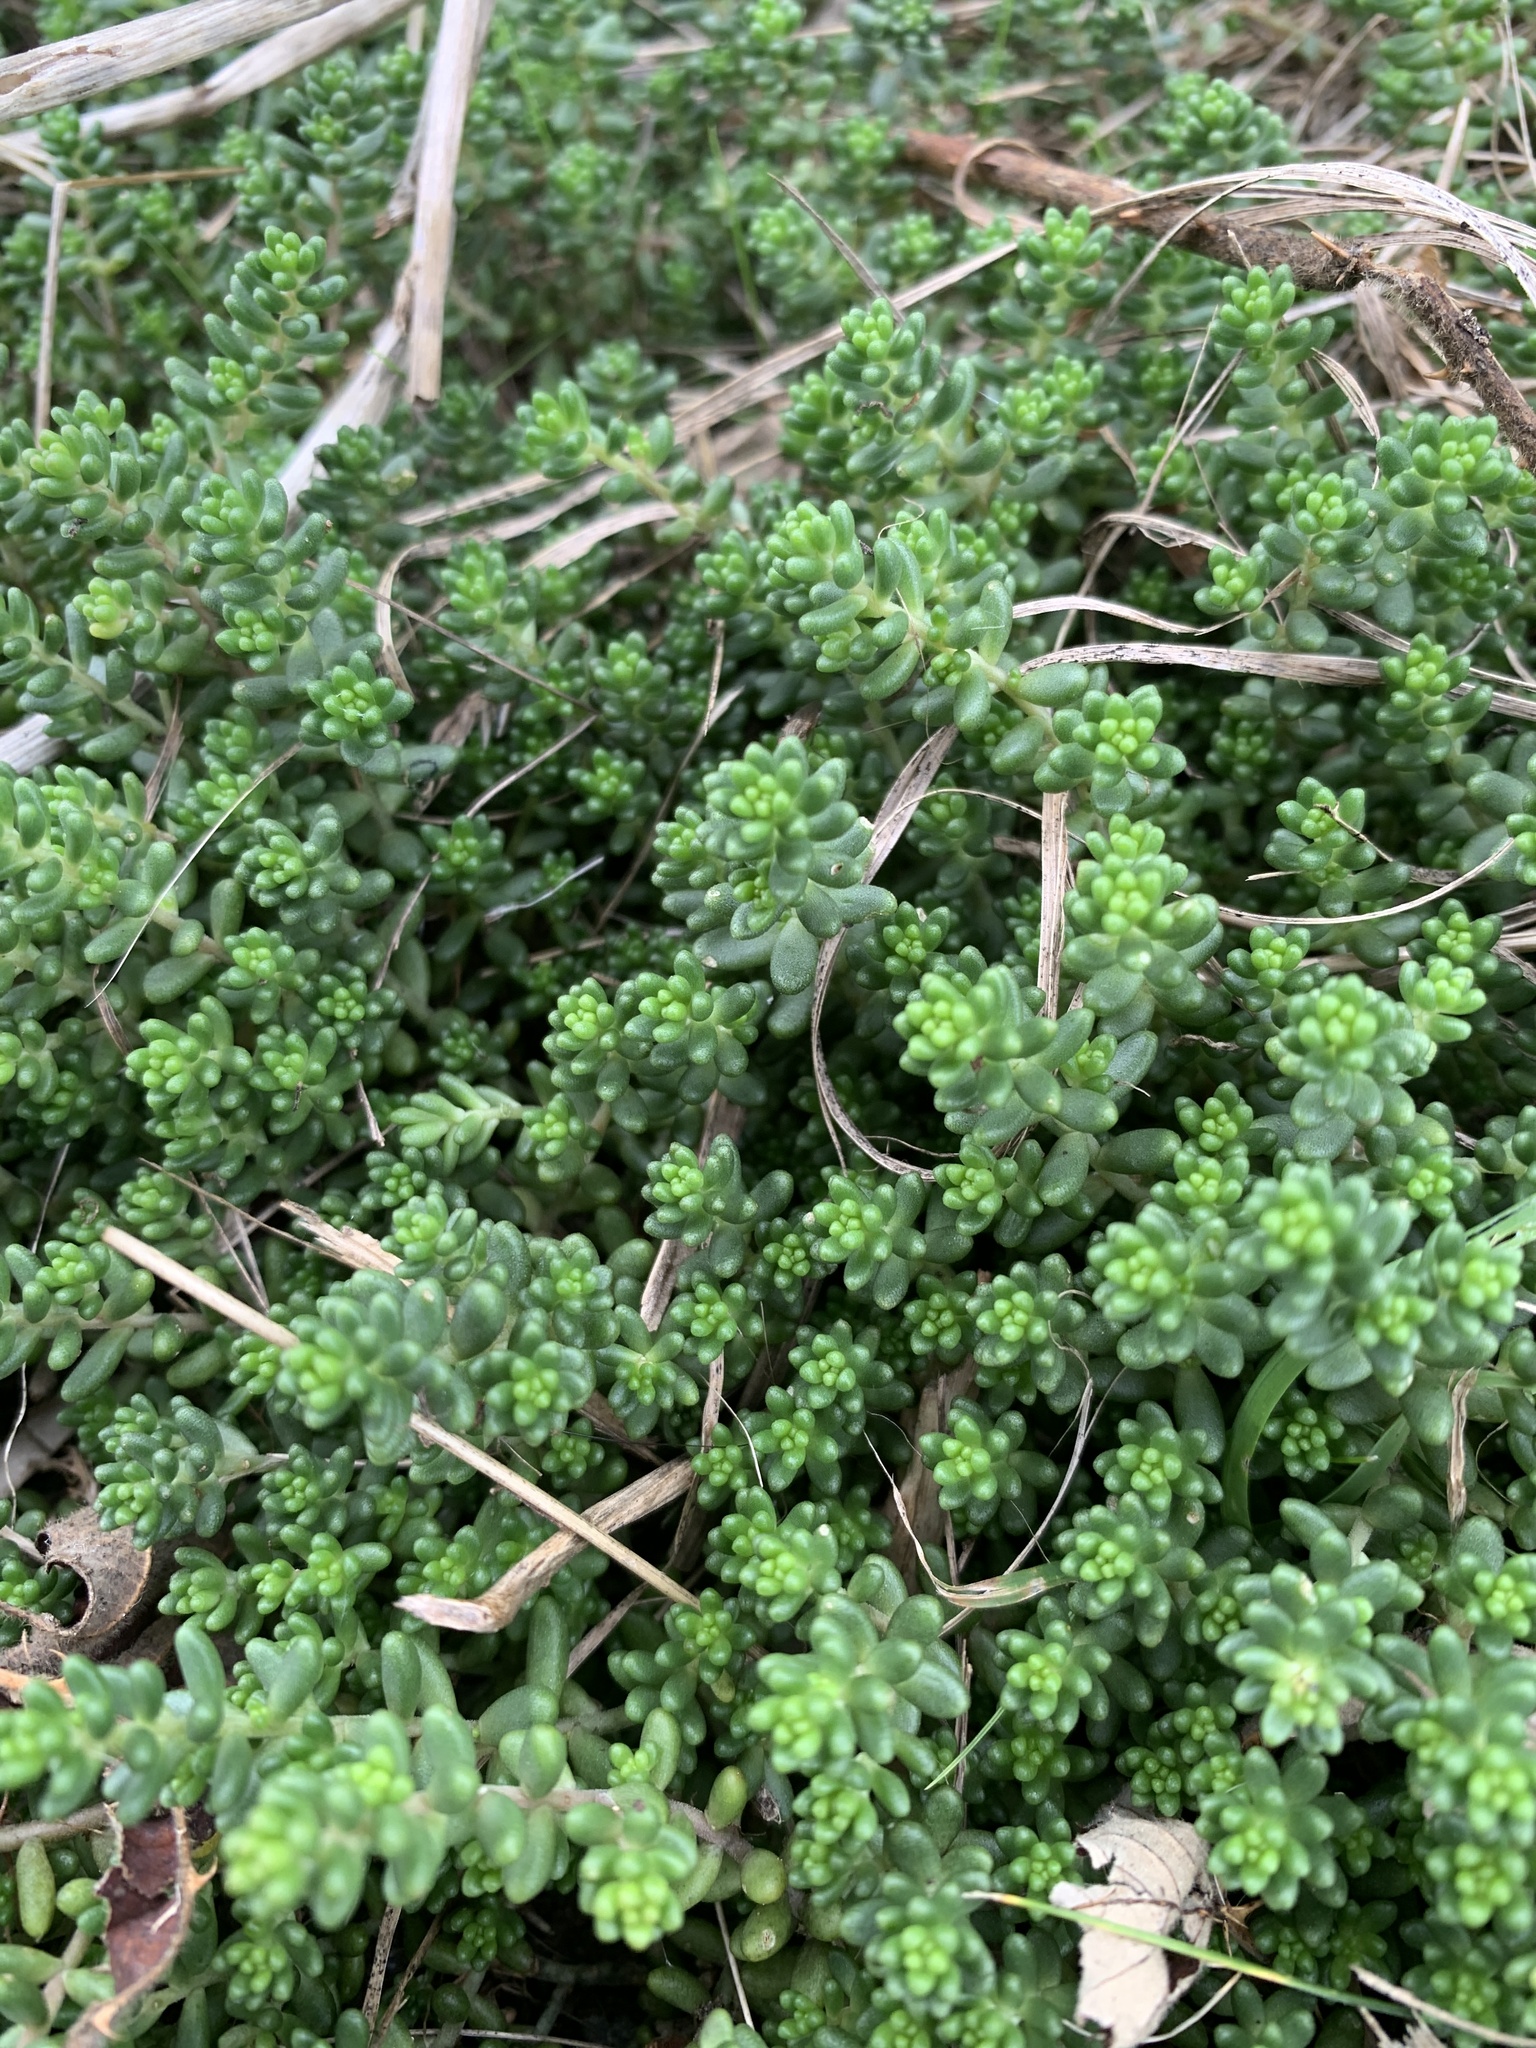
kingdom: Plantae
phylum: Tracheophyta
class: Magnoliopsida
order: Saxifragales
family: Crassulaceae
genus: Sedum
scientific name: Sedum album
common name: White stonecrop
